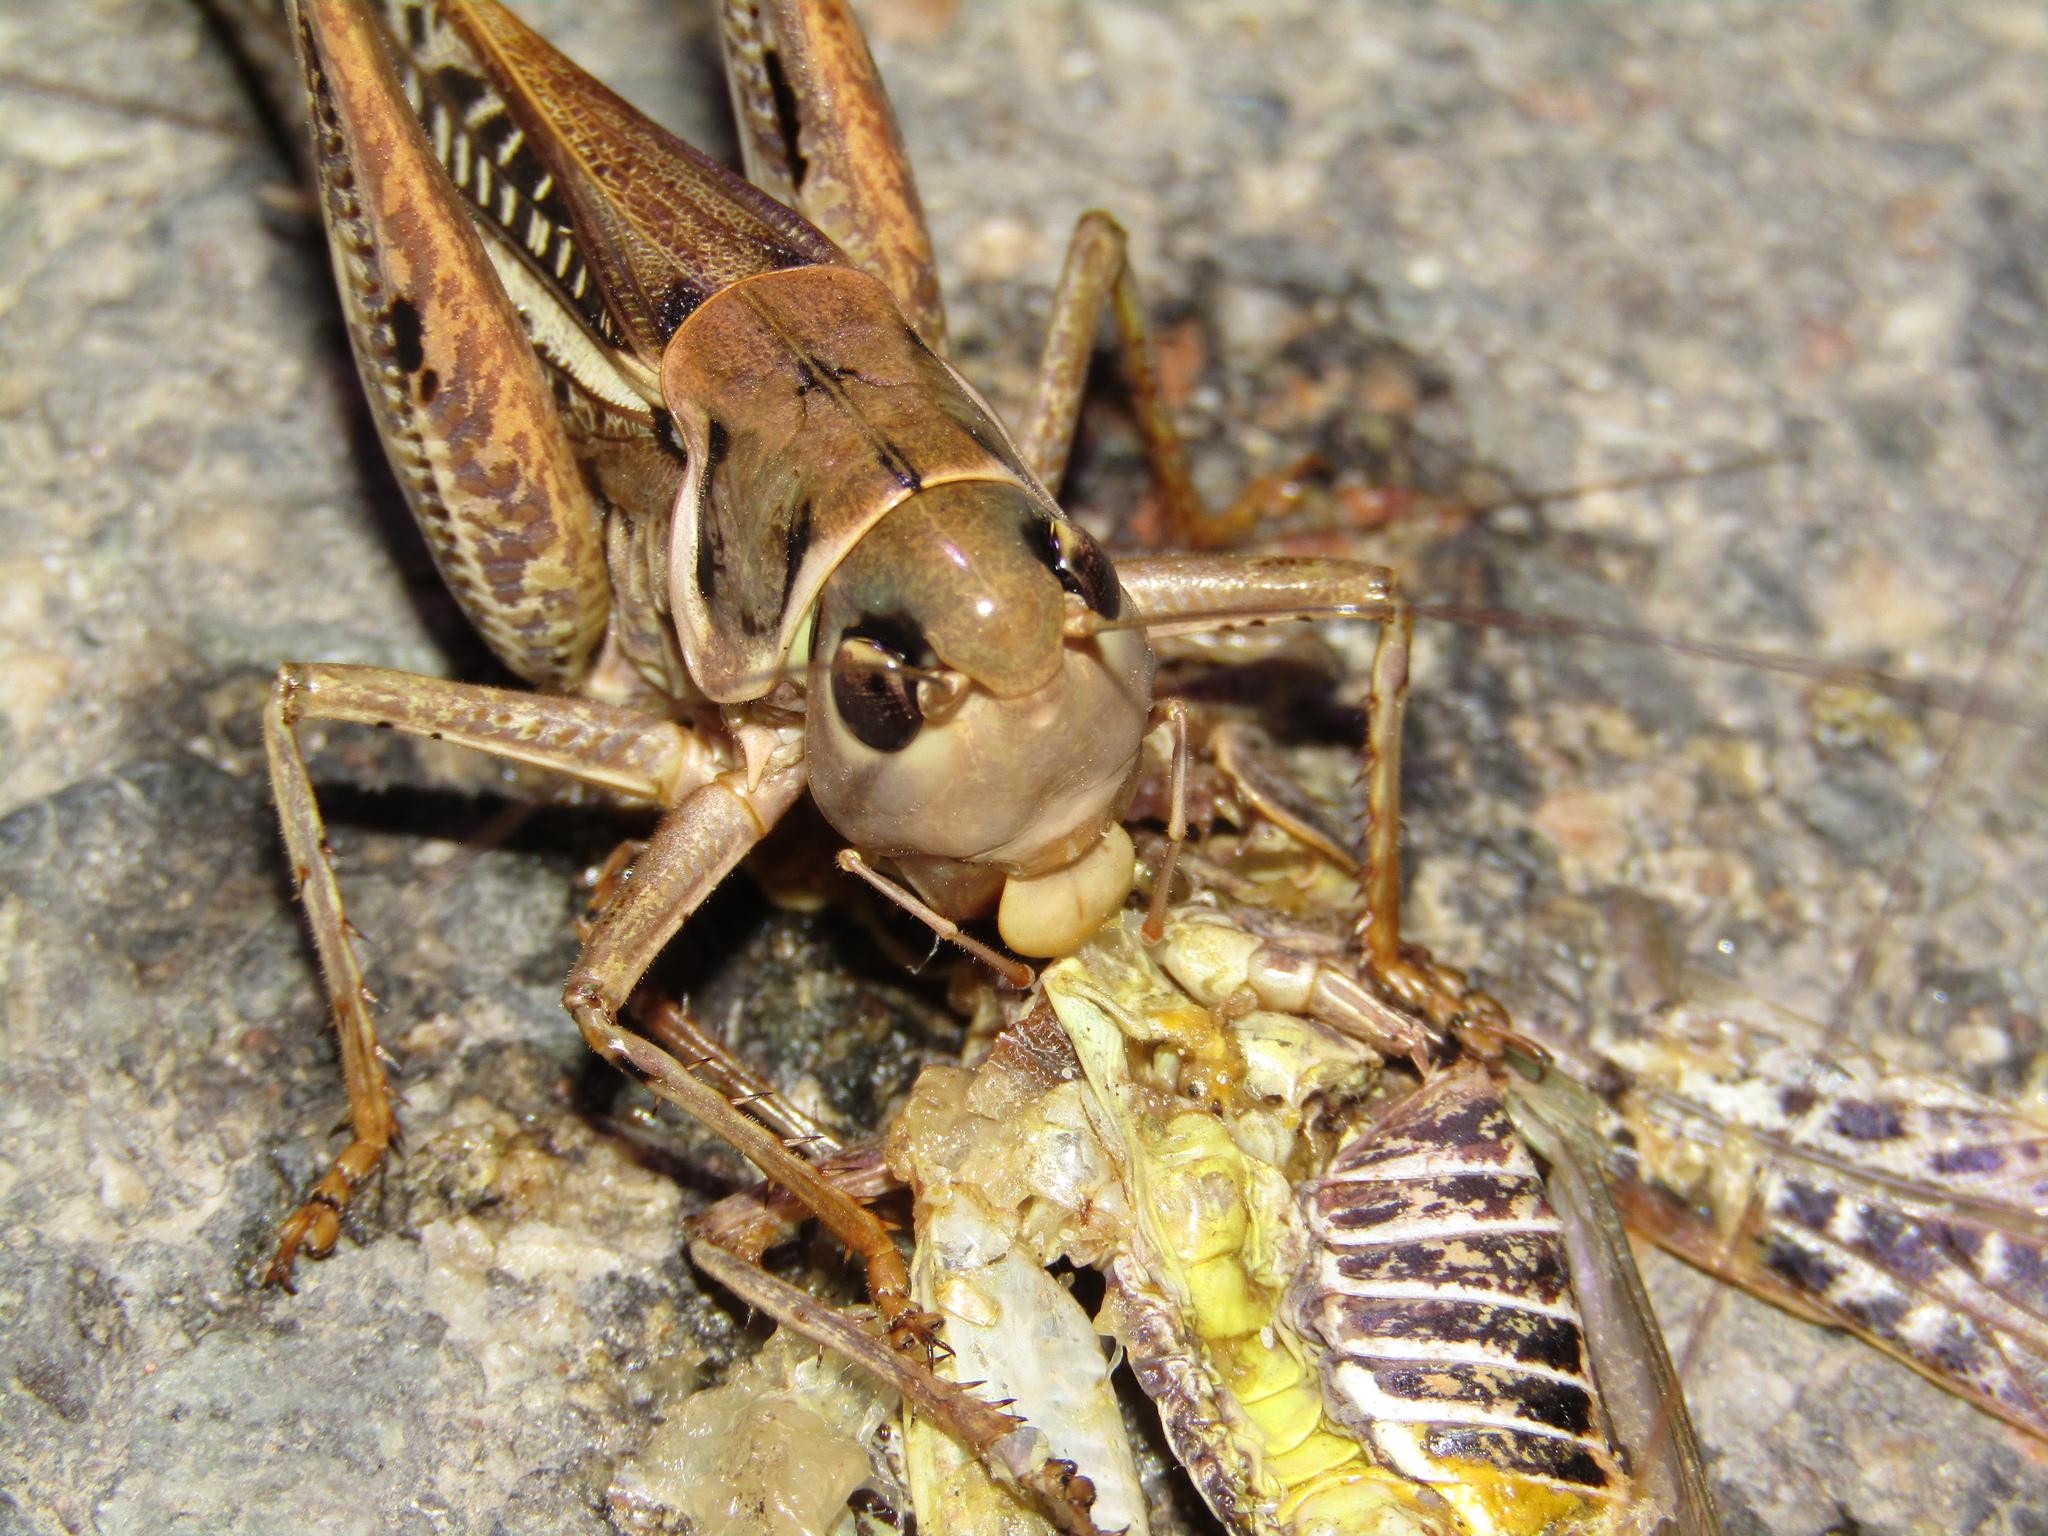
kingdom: Animalia
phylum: Arthropoda
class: Insecta
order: Orthoptera
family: Tettigoniidae
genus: Decticus
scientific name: Decticus albifrons
